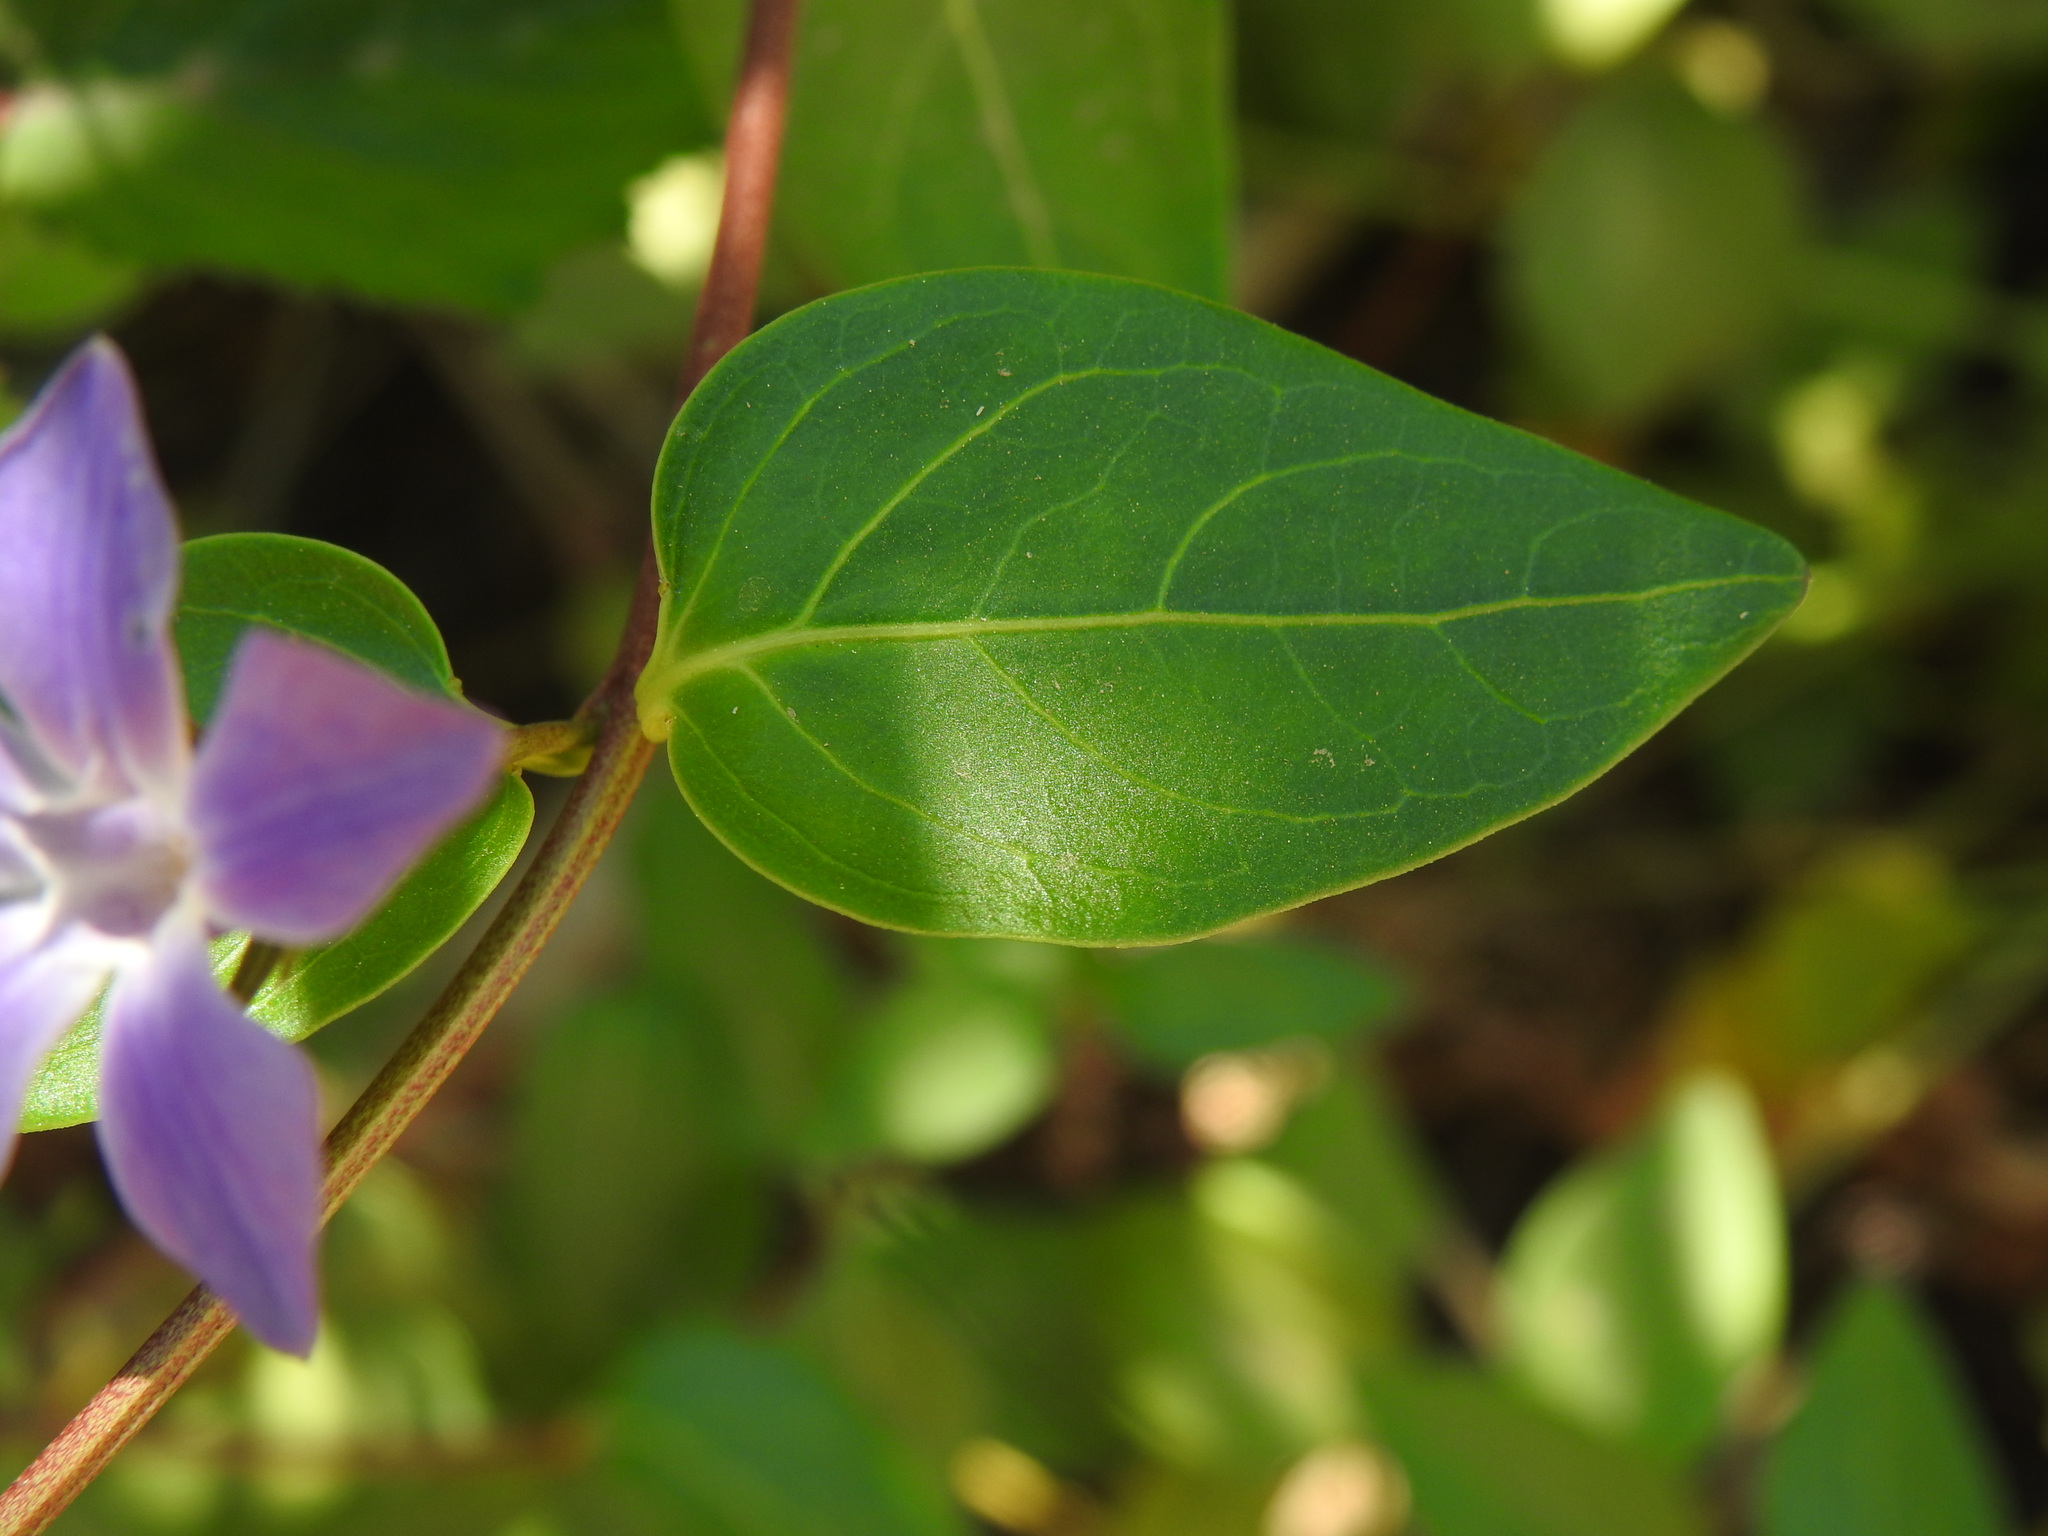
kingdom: Plantae
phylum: Tracheophyta
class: Magnoliopsida
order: Gentianales
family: Apocynaceae
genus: Vinca
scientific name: Vinca difformis
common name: Intermediate periwinkle
